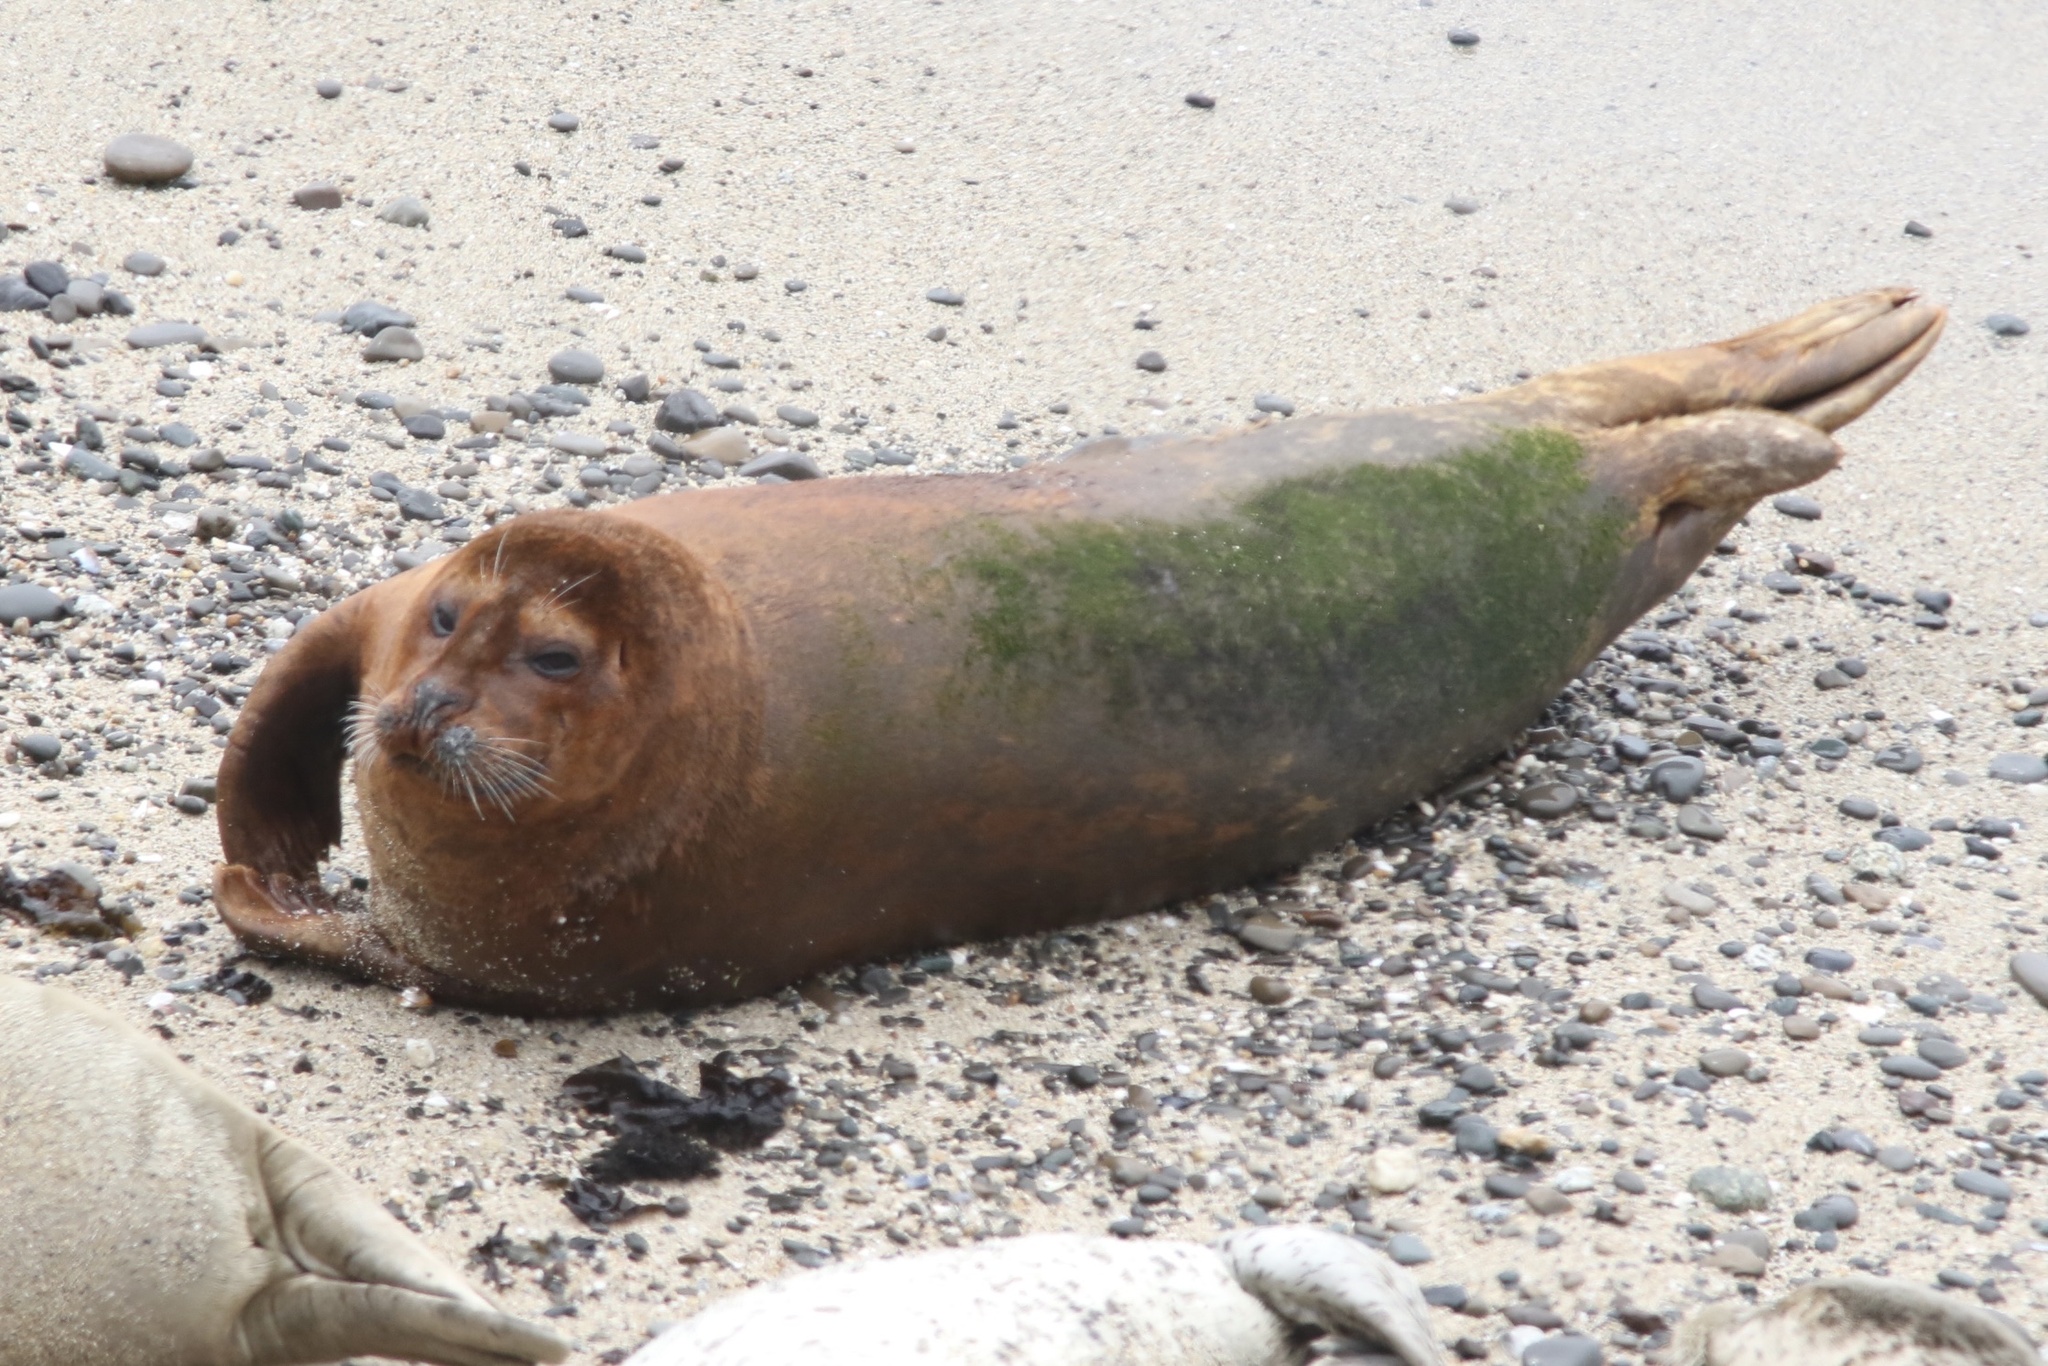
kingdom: Animalia
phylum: Chordata
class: Mammalia
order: Carnivora
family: Phocidae
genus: Phoca
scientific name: Phoca vitulina
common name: Harbor seal
